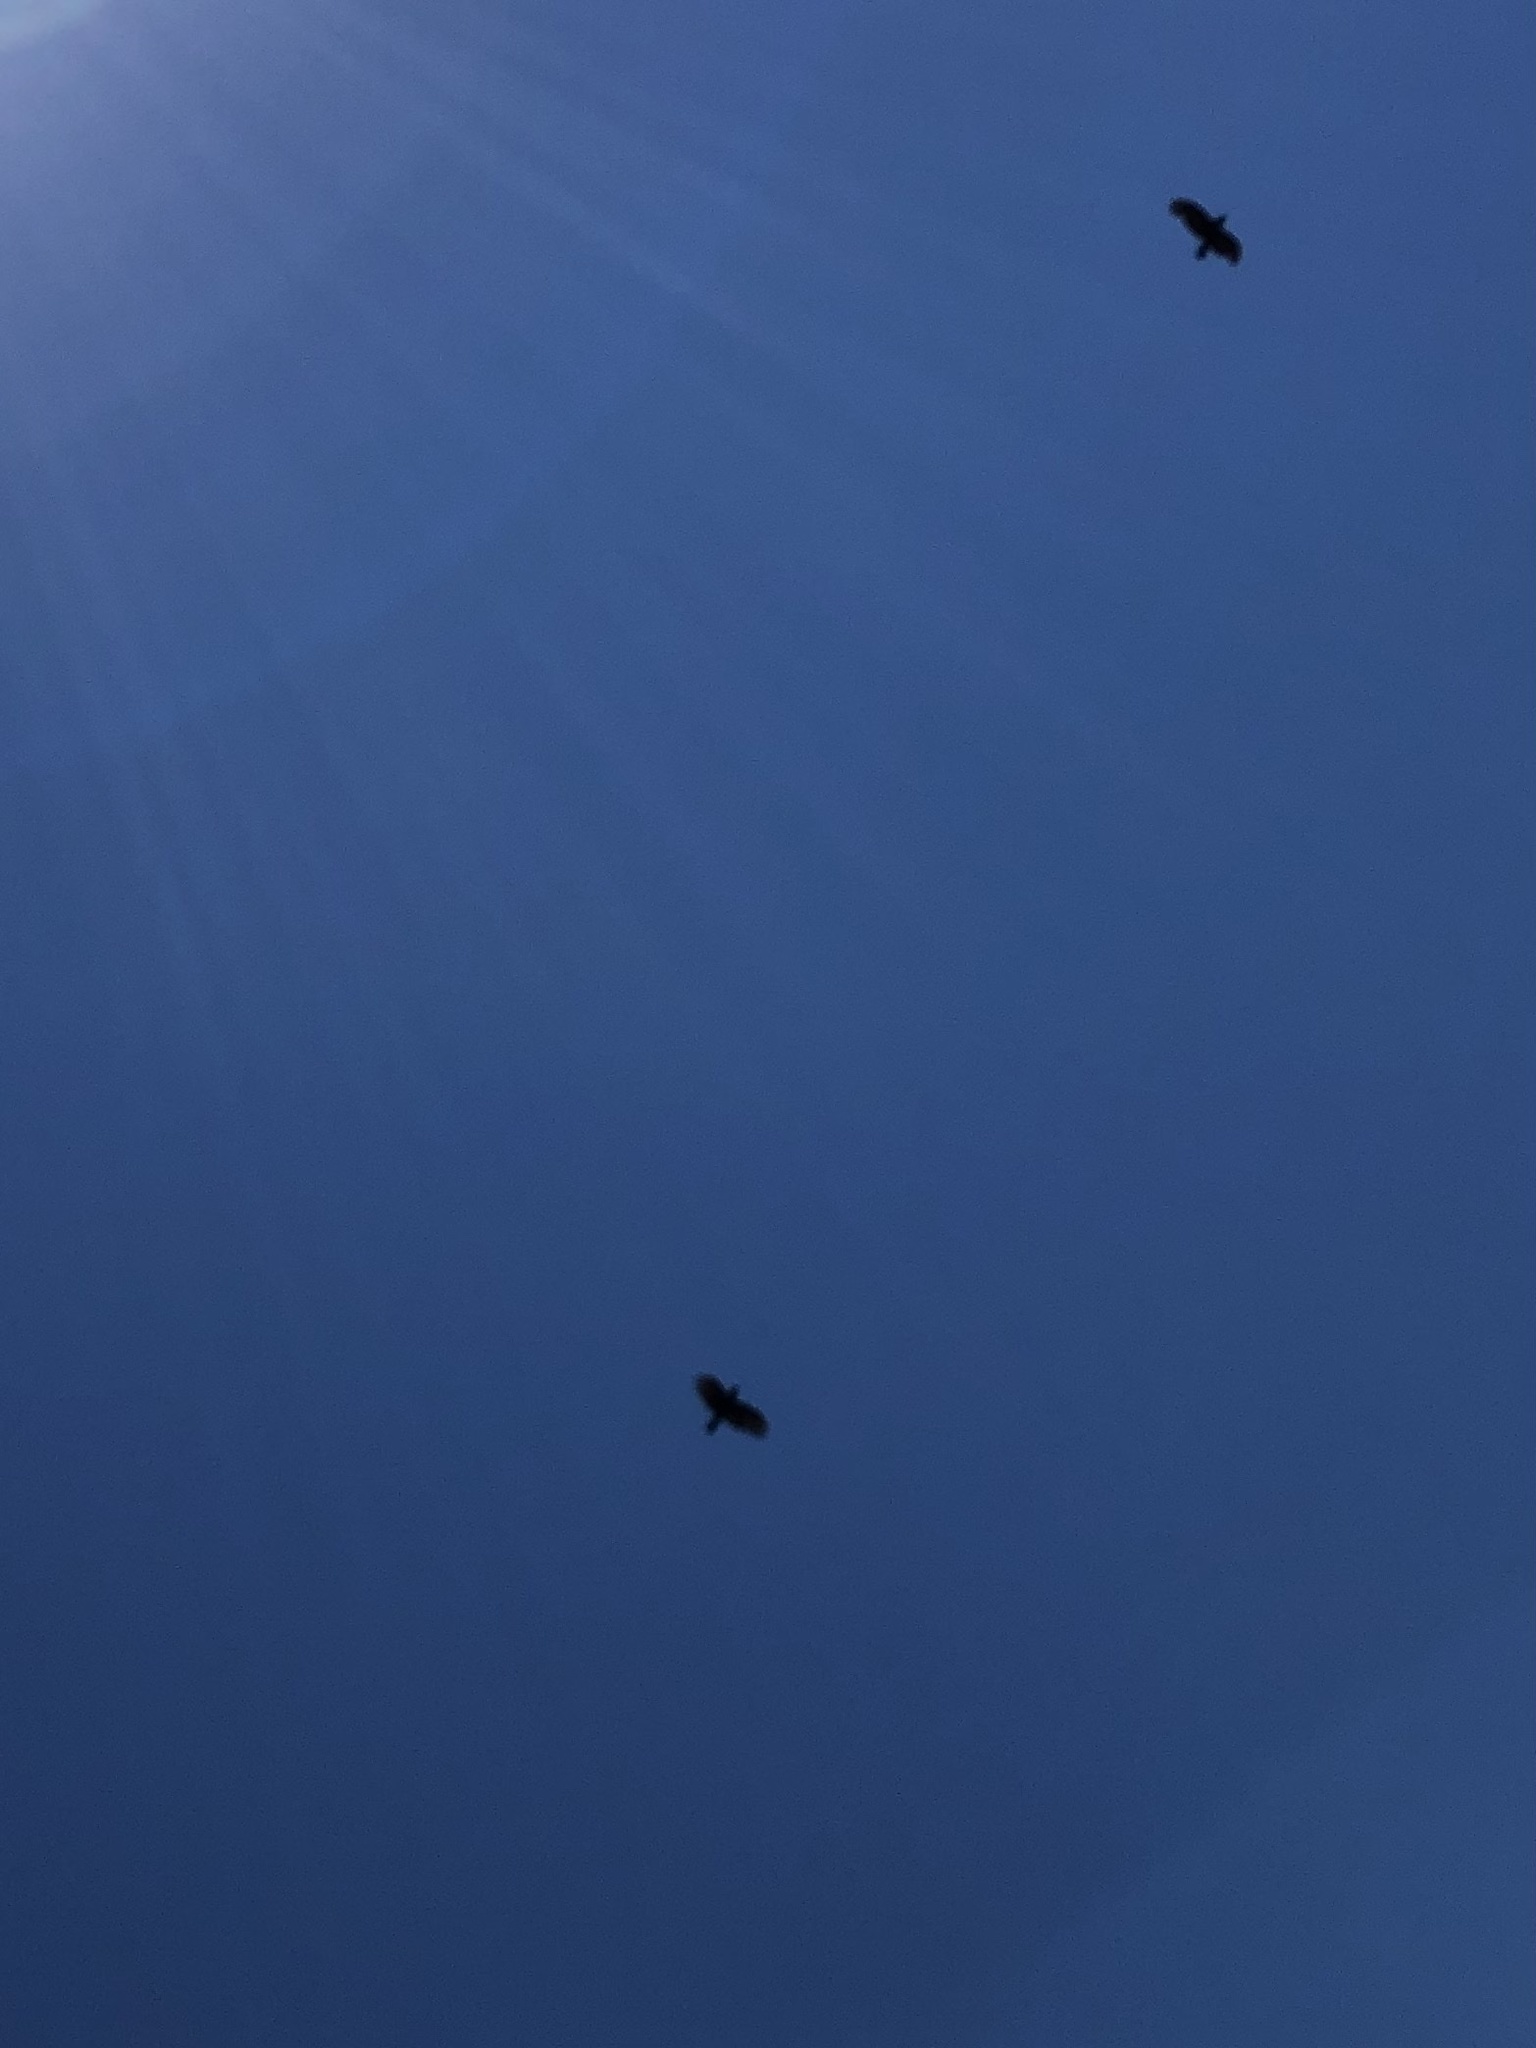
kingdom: Animalia
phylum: Chordata
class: Aves
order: Passeriformes
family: Corvidae
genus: Corvus
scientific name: Corvus brachyrhynchos
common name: American crow
